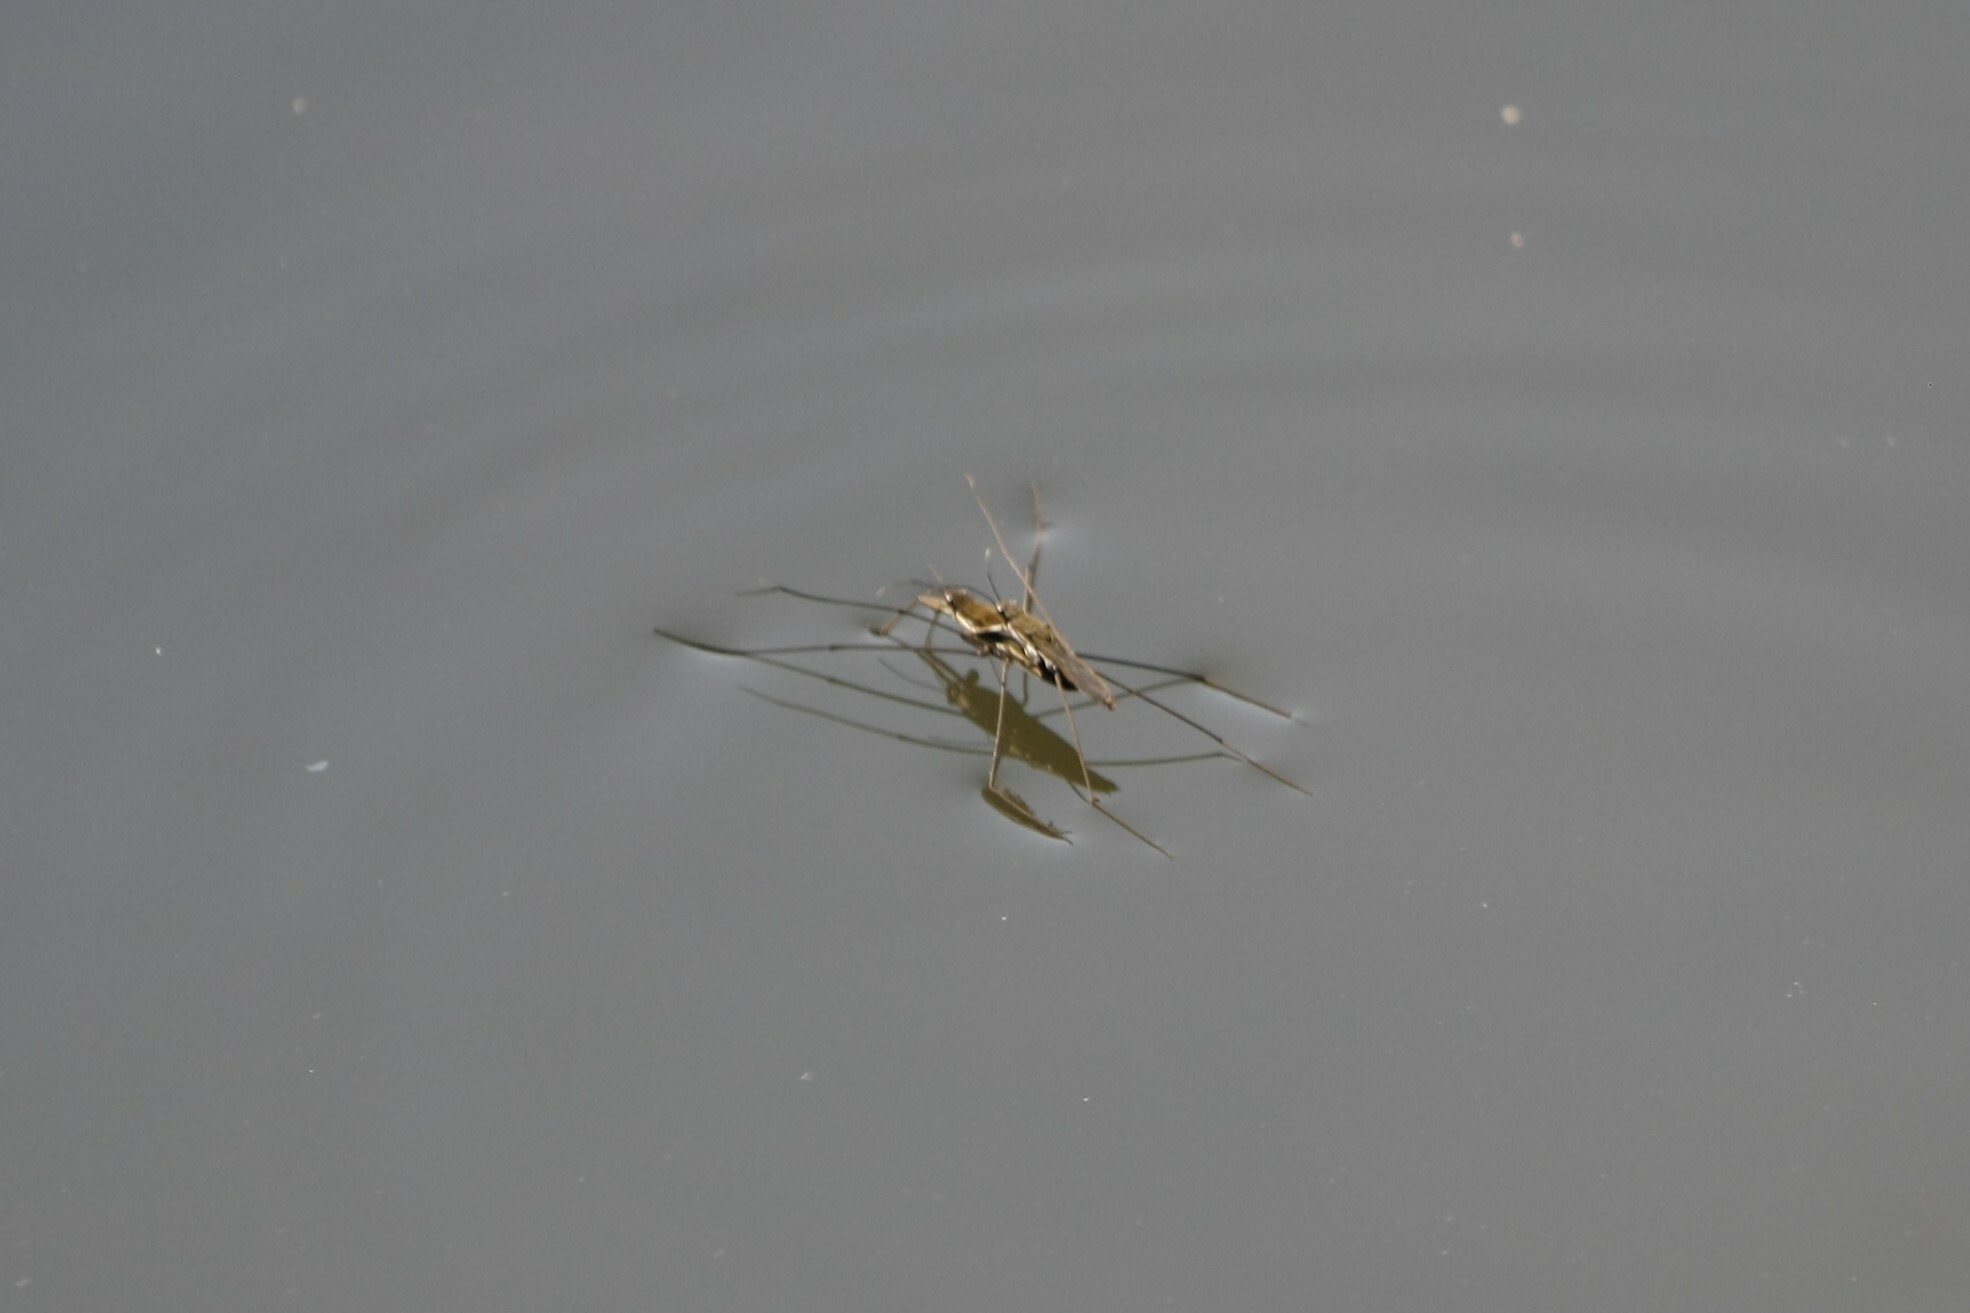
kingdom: Animalia
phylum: Arthropoda
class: Insecta
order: Hemiptera
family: Gerridae
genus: Aquarius
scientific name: Aquarius paludum
